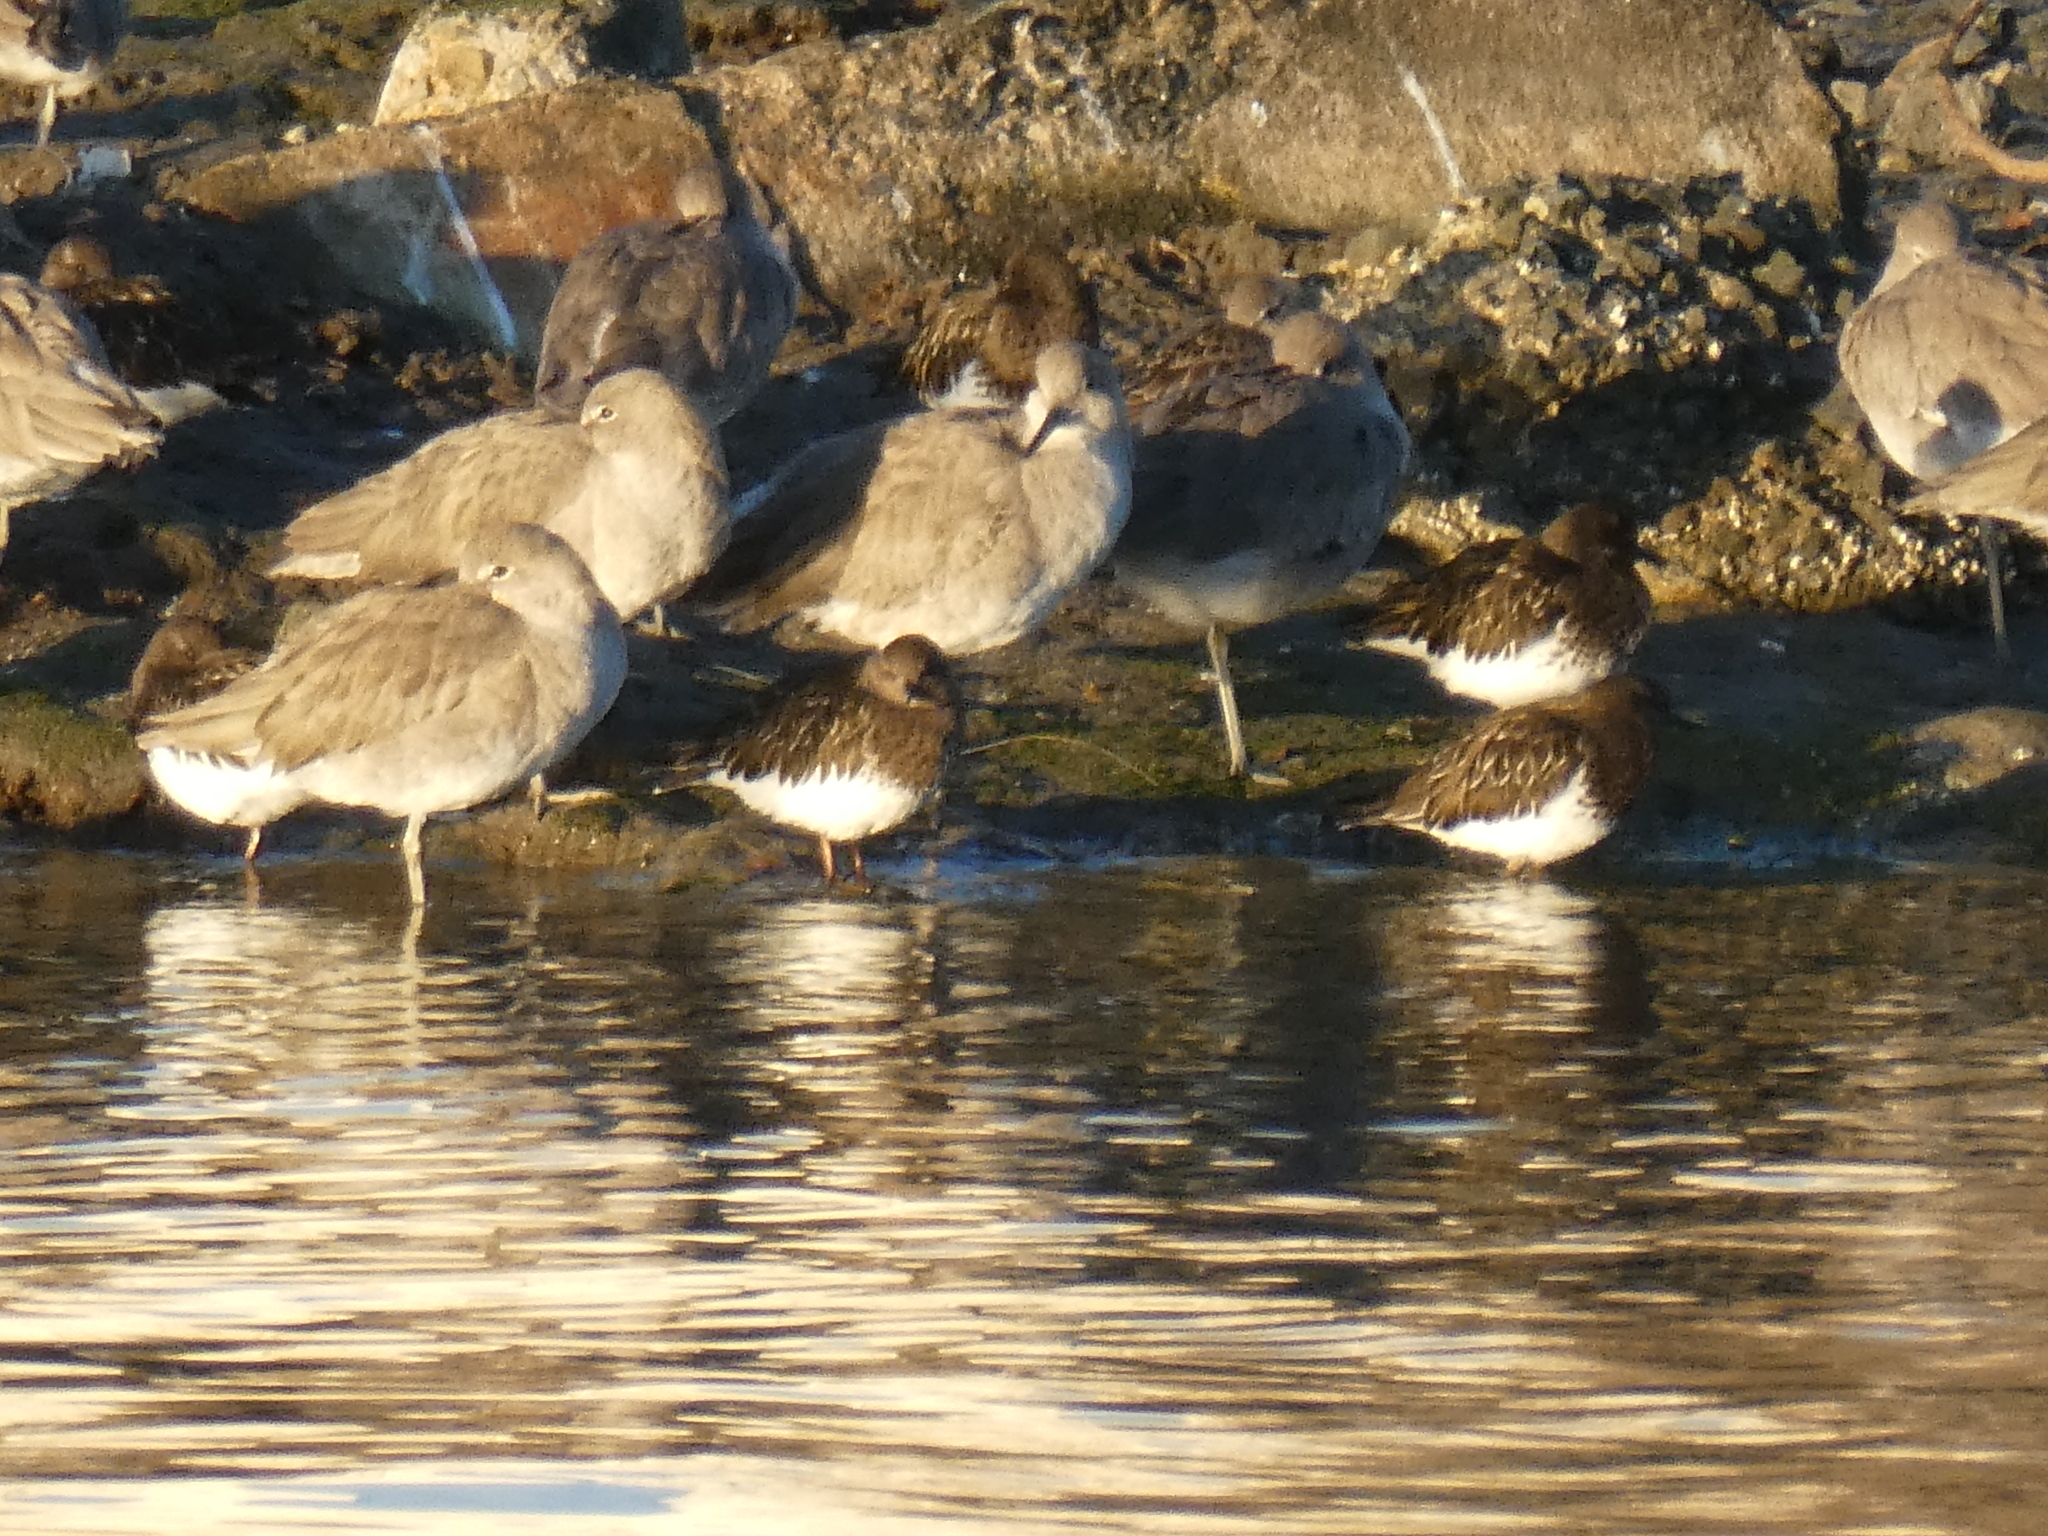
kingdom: Animalia
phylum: Chordata
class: Aves
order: Charadriiformes
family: Scolopacidae
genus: Arenaria
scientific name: Arenaria melanocephala
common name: Black turnstone
